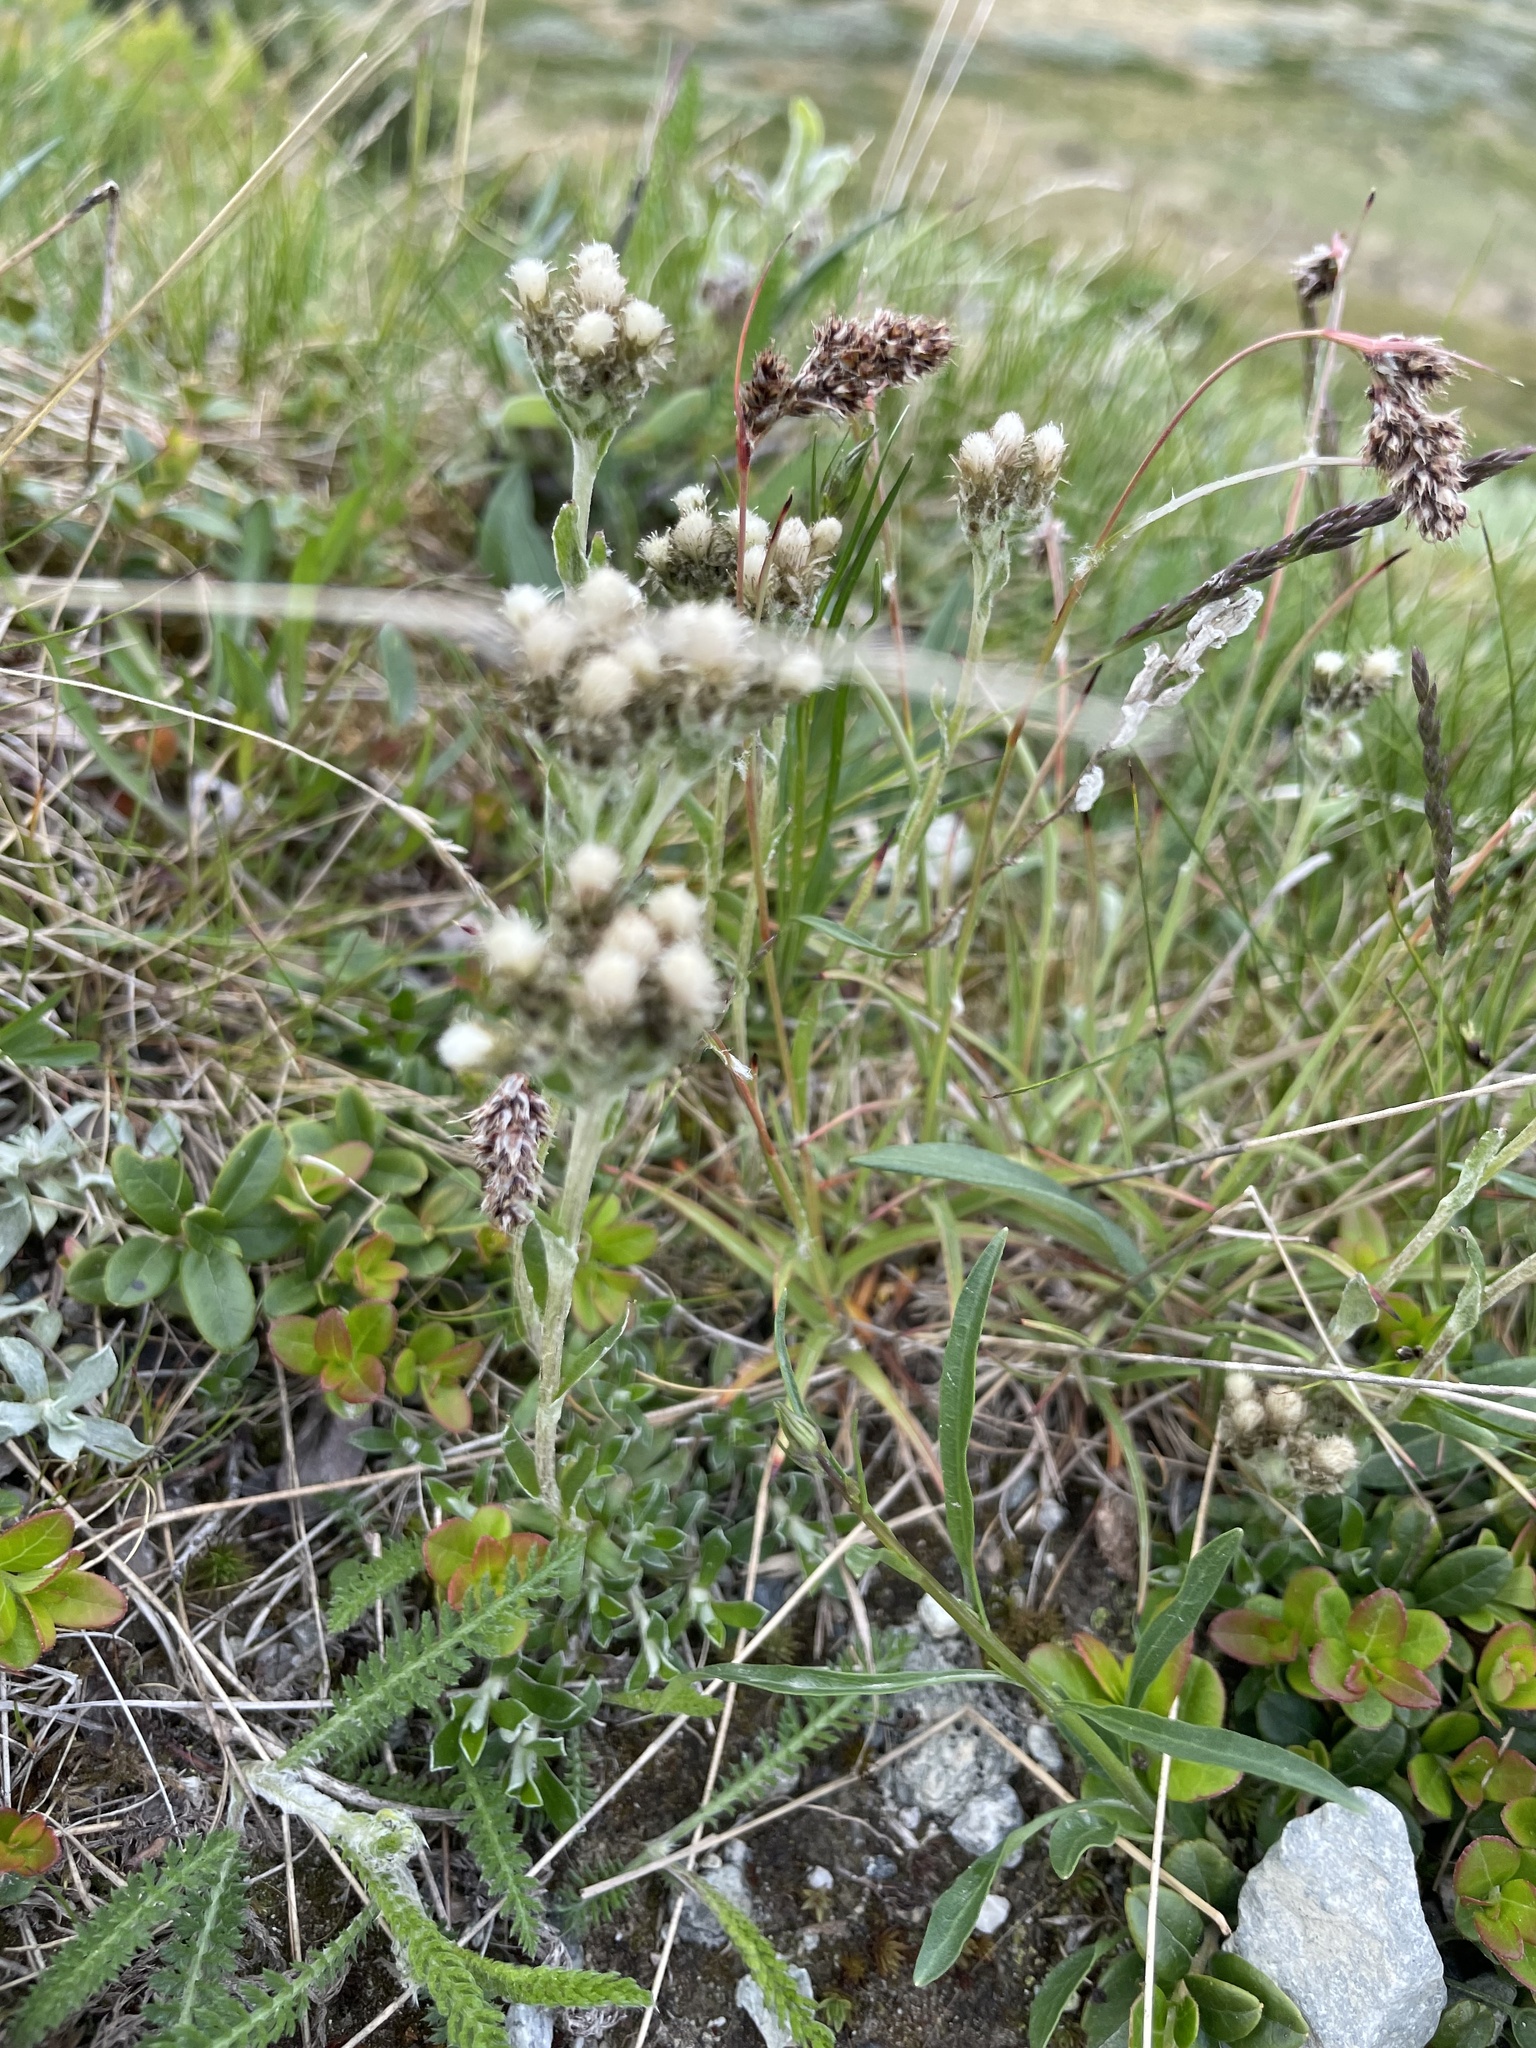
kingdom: Plantae
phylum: Tracheophyta
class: Magnoliopsida
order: Asterales
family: Asteraceae
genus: Antennaria
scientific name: Antennaria alpina
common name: Alpine pussytoes
